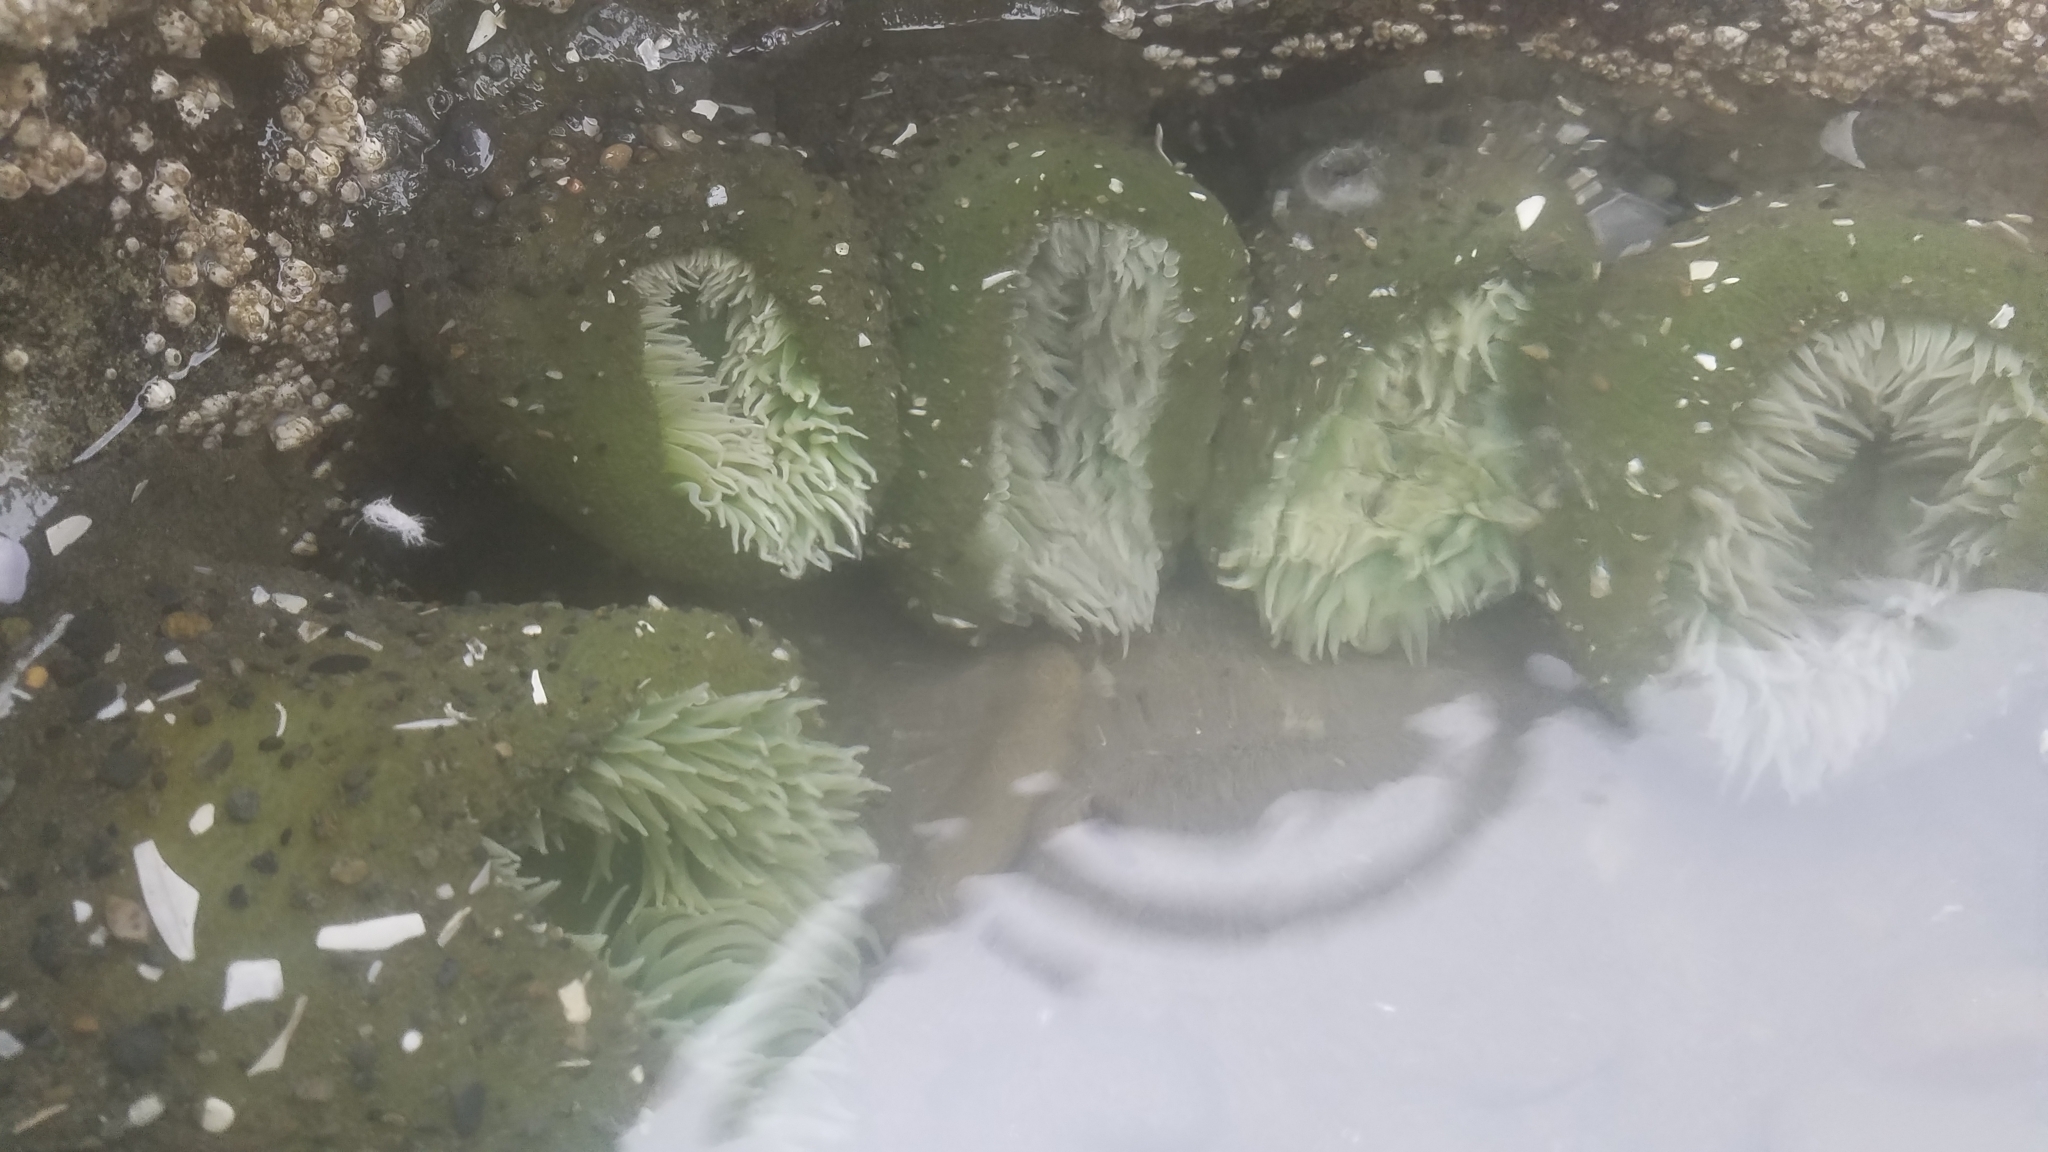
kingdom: Animalia
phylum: Cnidaria
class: Anthozoa
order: Actiniaria
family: Actiniidae
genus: Anthopleura
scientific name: Anthopleura xanthogrammica
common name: Giant green anemone
